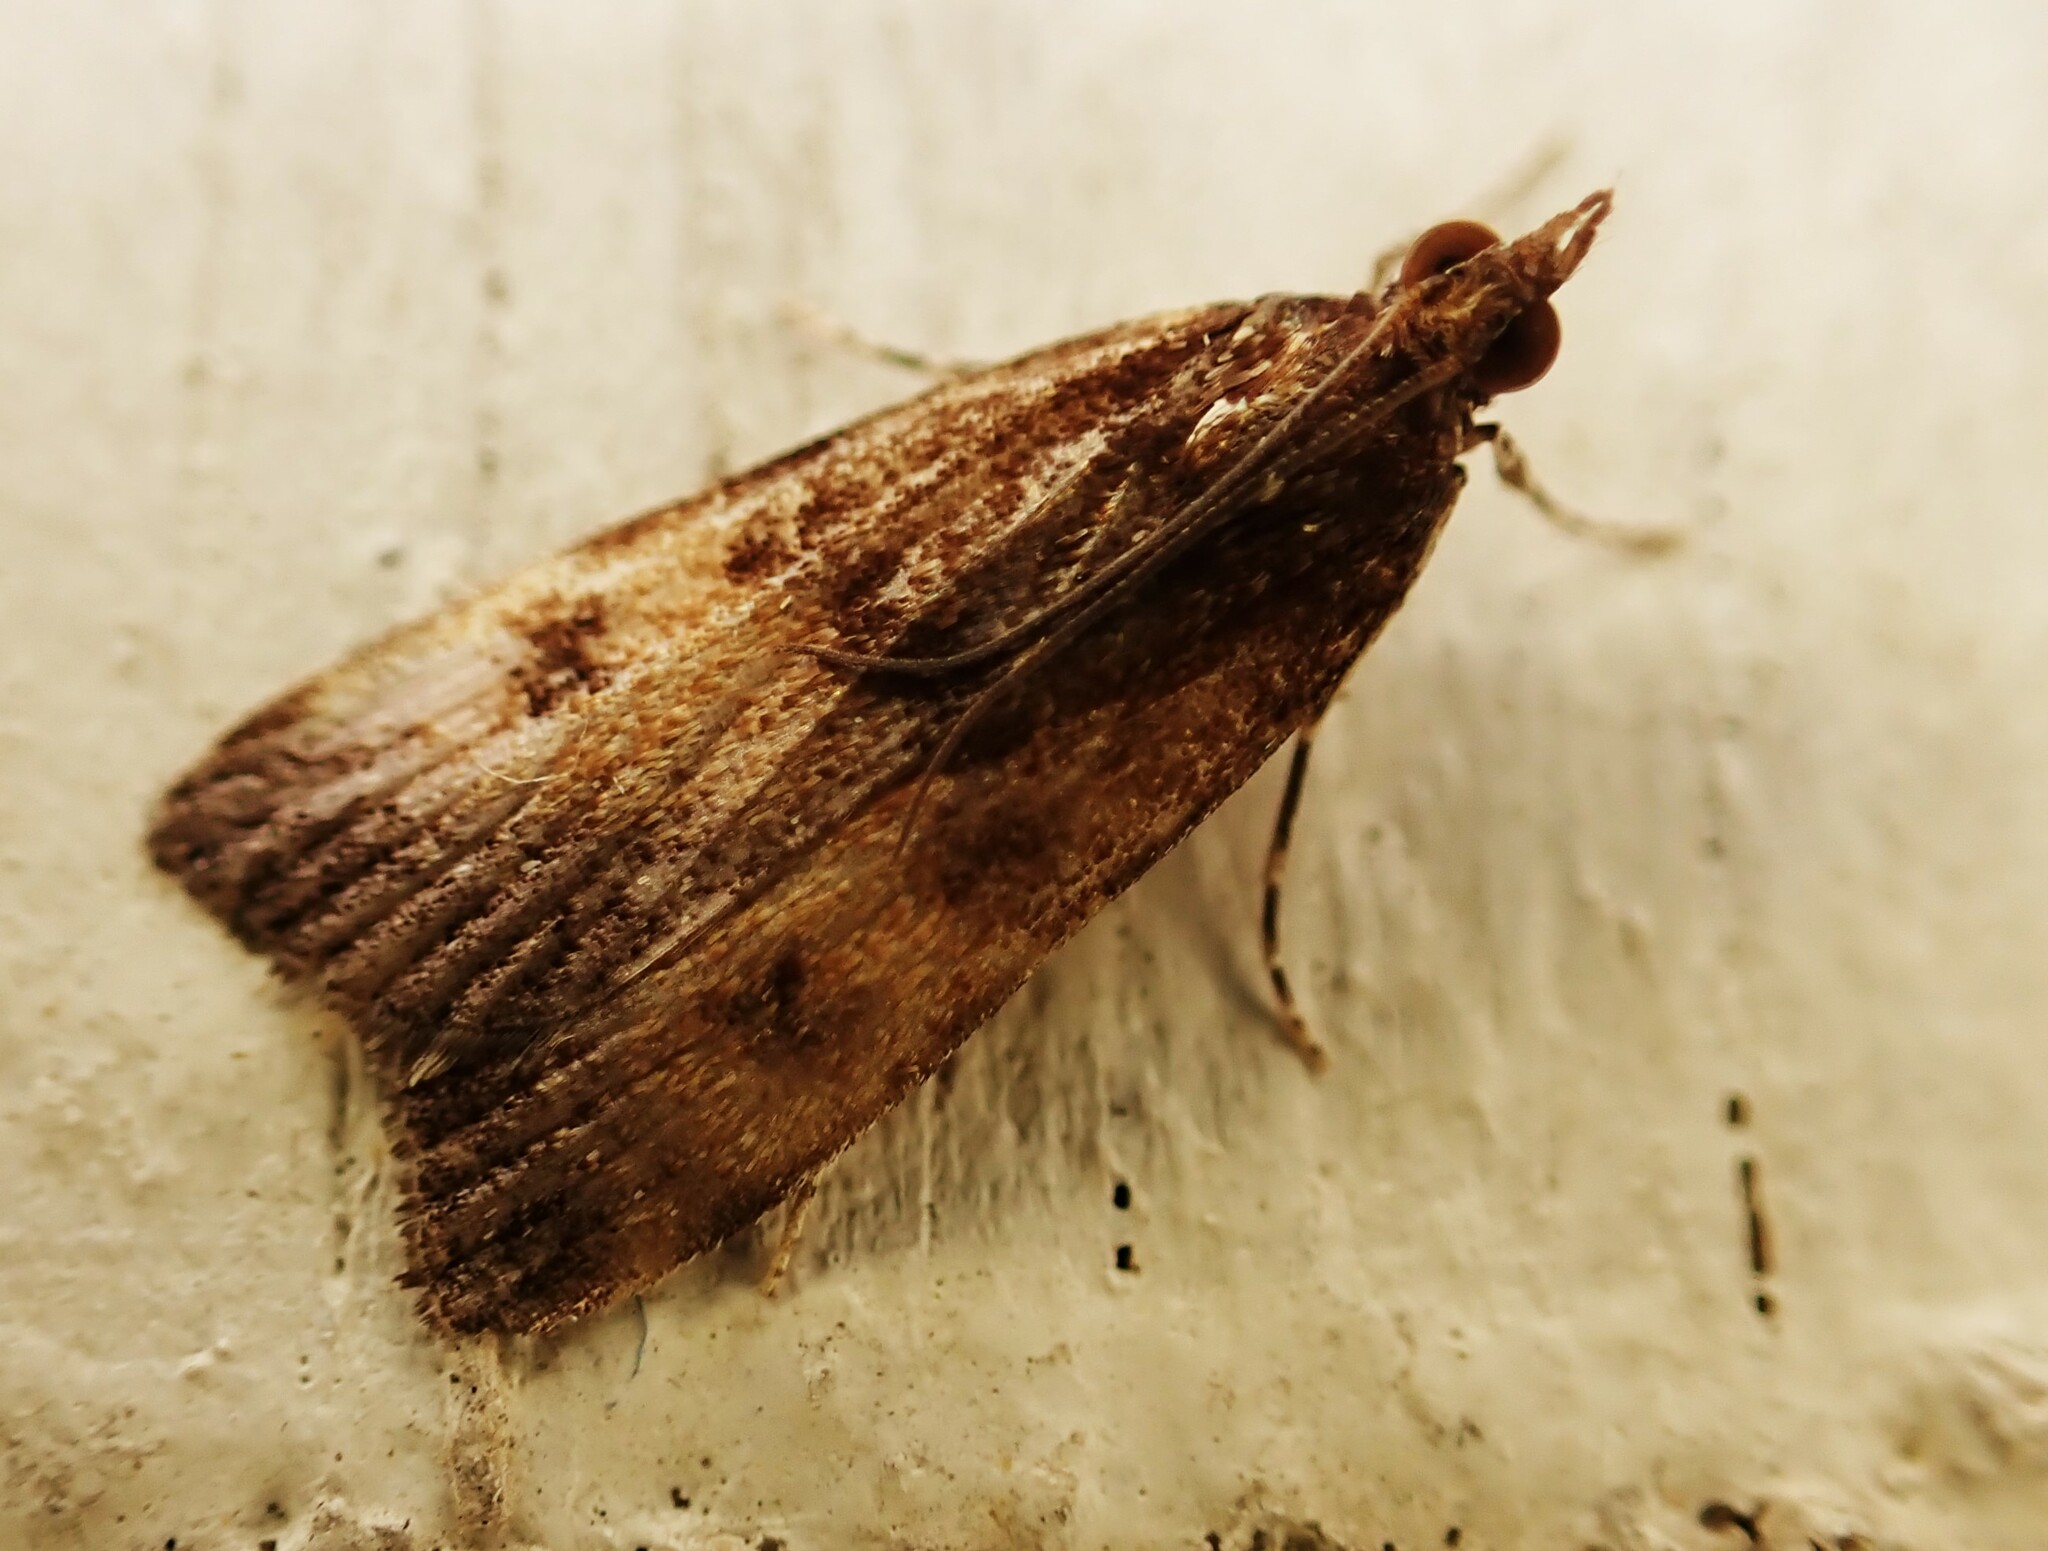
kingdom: Animalia
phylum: Arthropoda
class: Insecta
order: Lepidoptera
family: Crambidae
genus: Eudonia
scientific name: Eudonia asterisca
